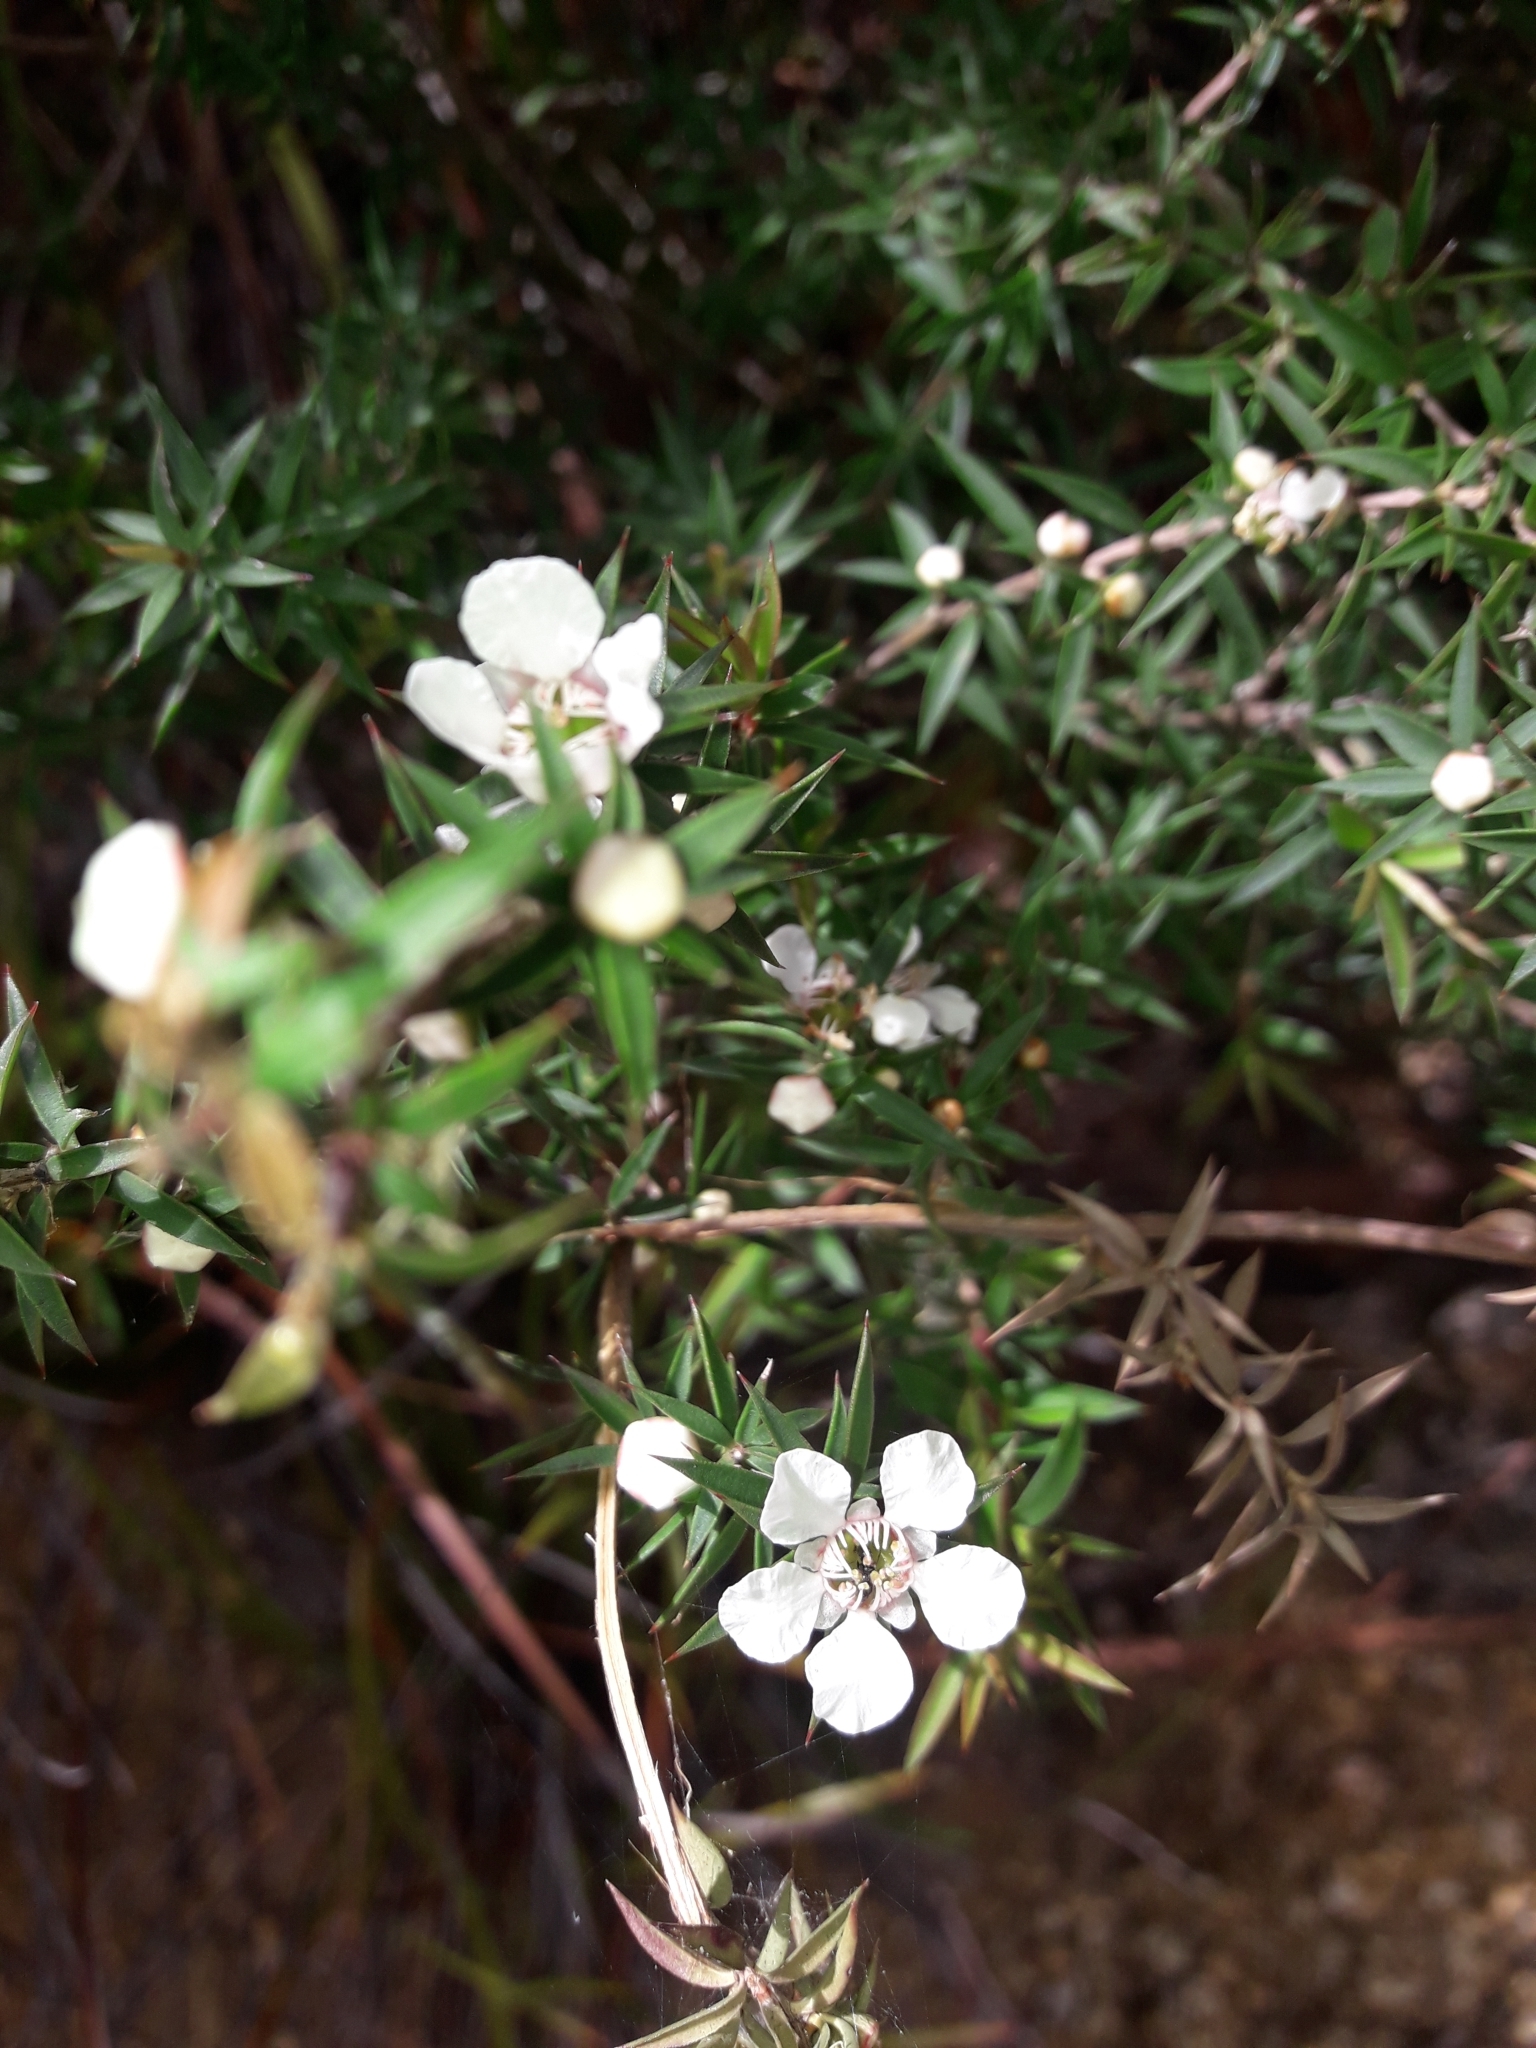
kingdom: Plantae
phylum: Tracheophyta
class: Magnoliopsida
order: Myrtales
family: Myrtaceae
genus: Leptospermum
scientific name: Leptospermum continentale
